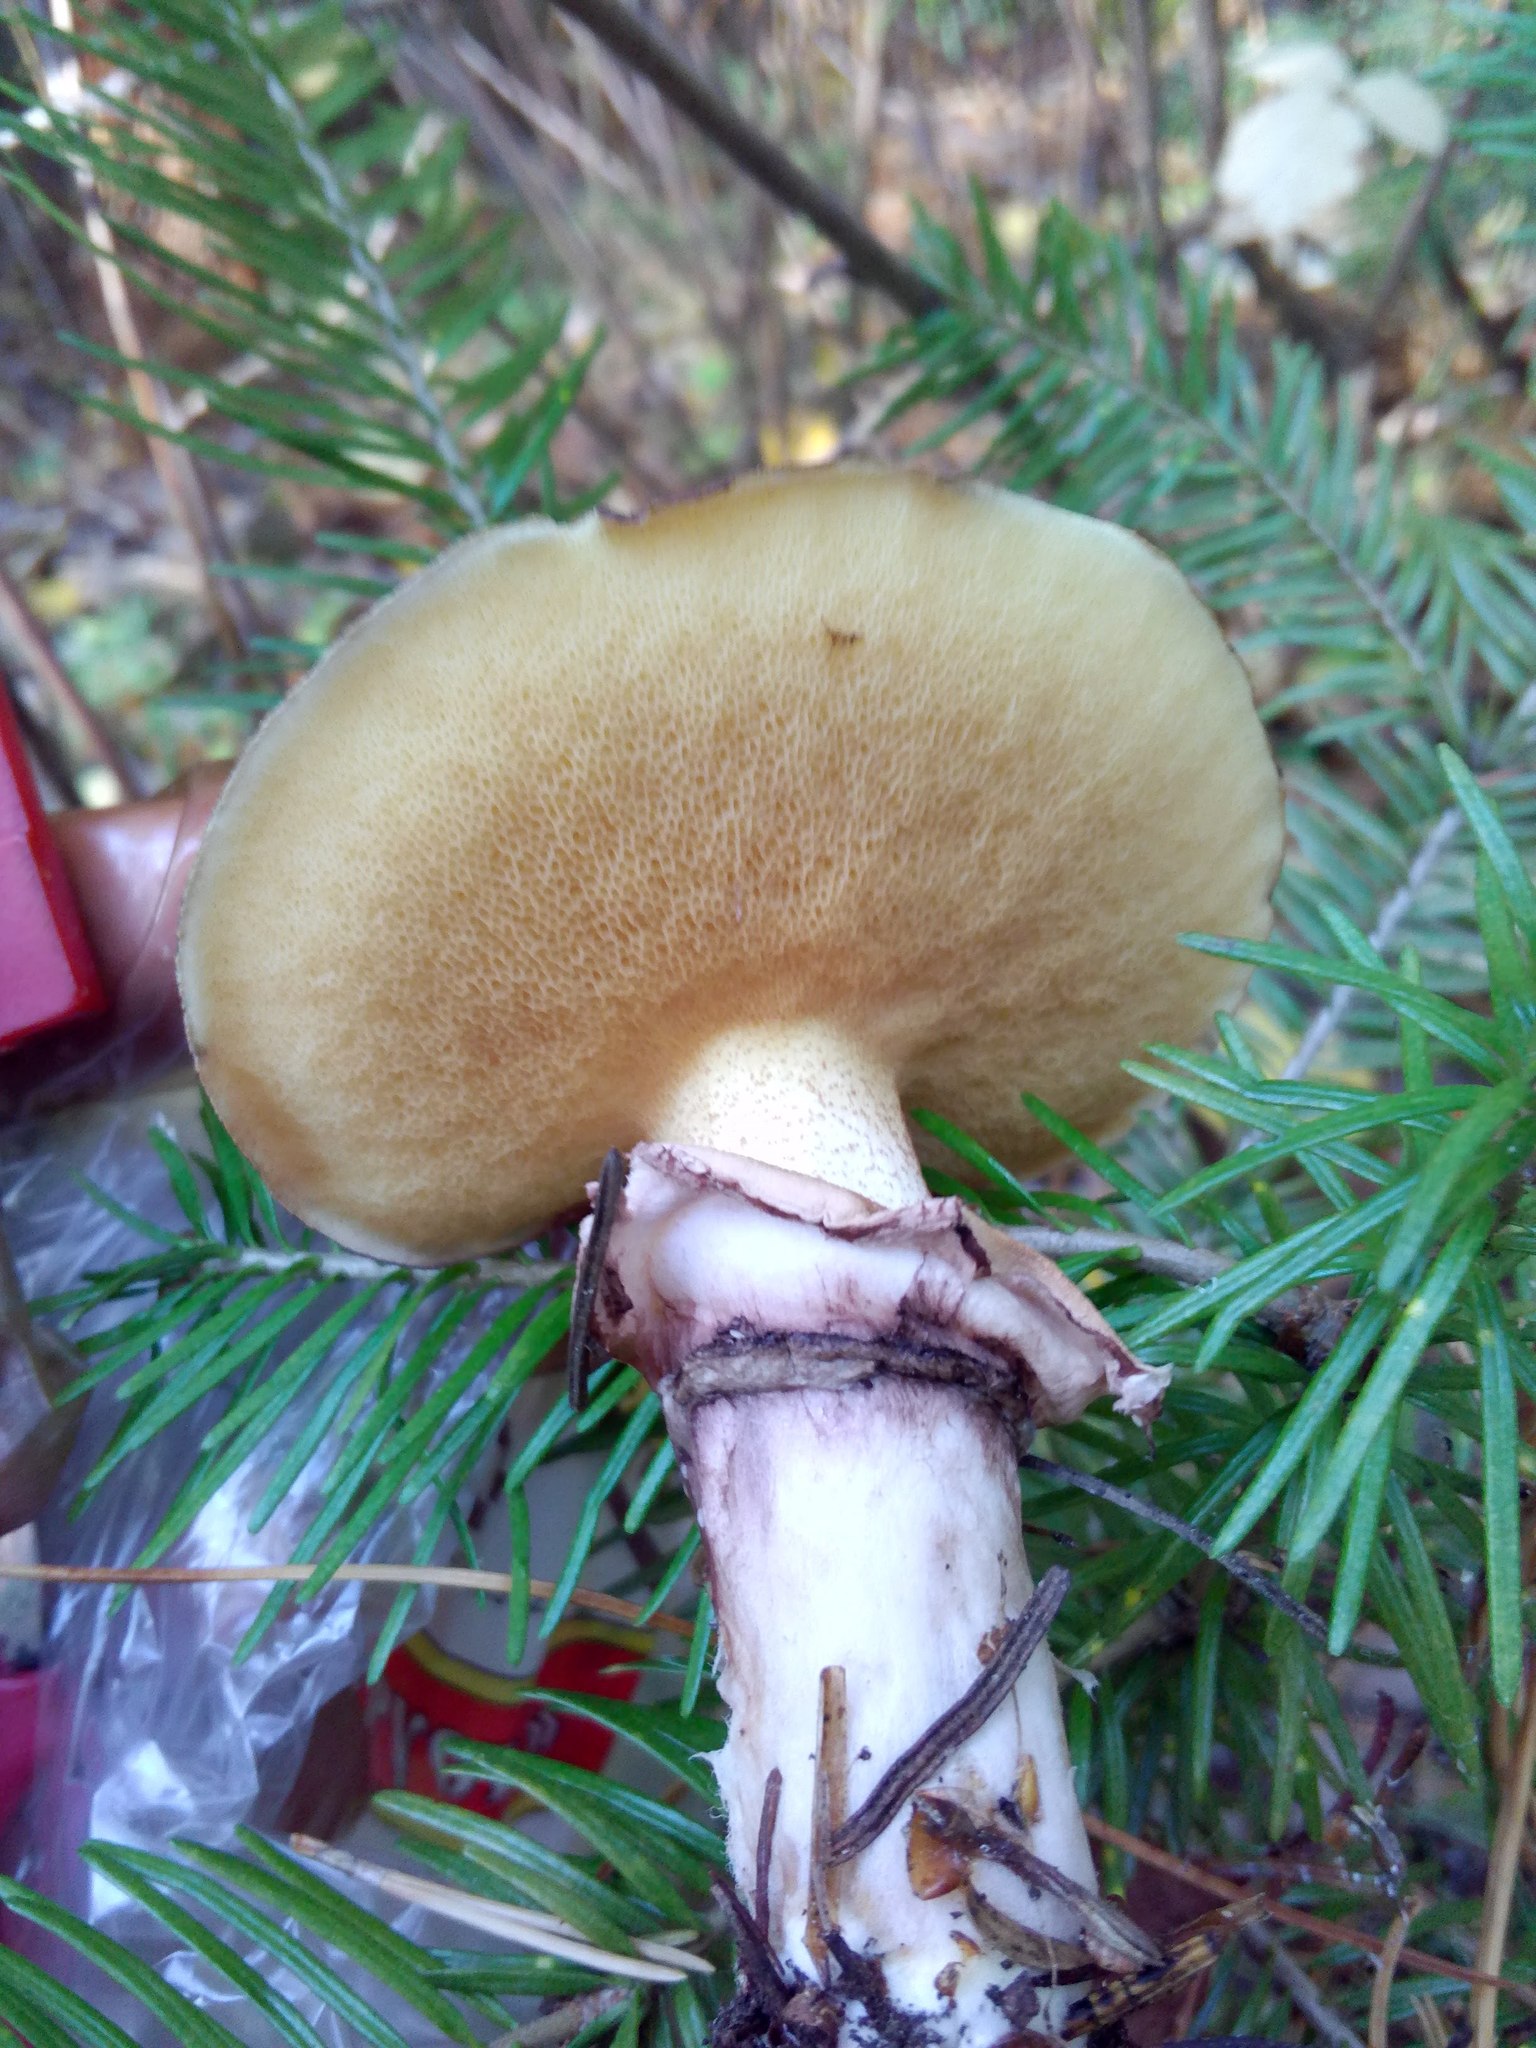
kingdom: Fungi
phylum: Basidiomycota
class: Agaricomycetes
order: Boletales
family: Suillaceae
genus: Suillus
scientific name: Suillus luteus
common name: Slippery jack
